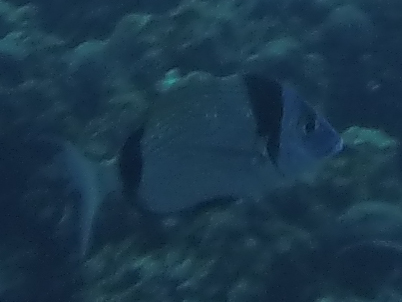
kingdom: Animalia
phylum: Chordata
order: Perciformes
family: Sparidae
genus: Diplodus
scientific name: Diplodus vulgaris
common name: Common two-banded seabream
